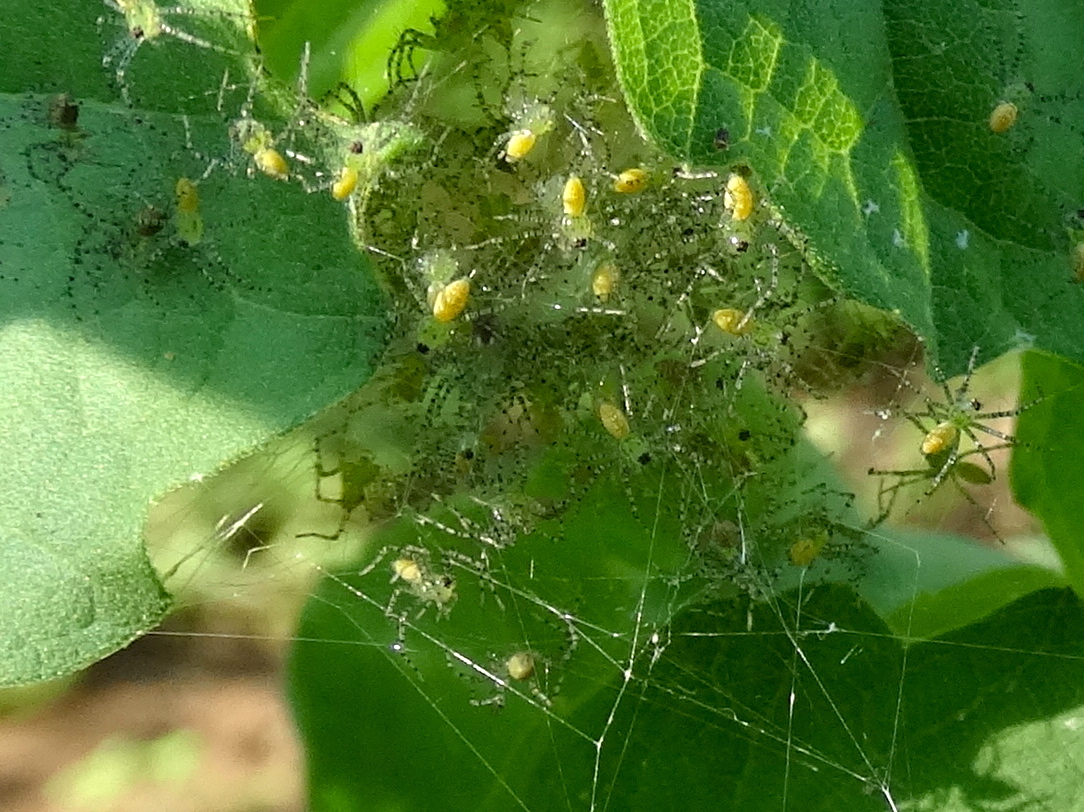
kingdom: Animalia
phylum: Arthropoda
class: Arachnida
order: Araneae
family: Oxyopidae
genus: Peucetia
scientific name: Peucetia
